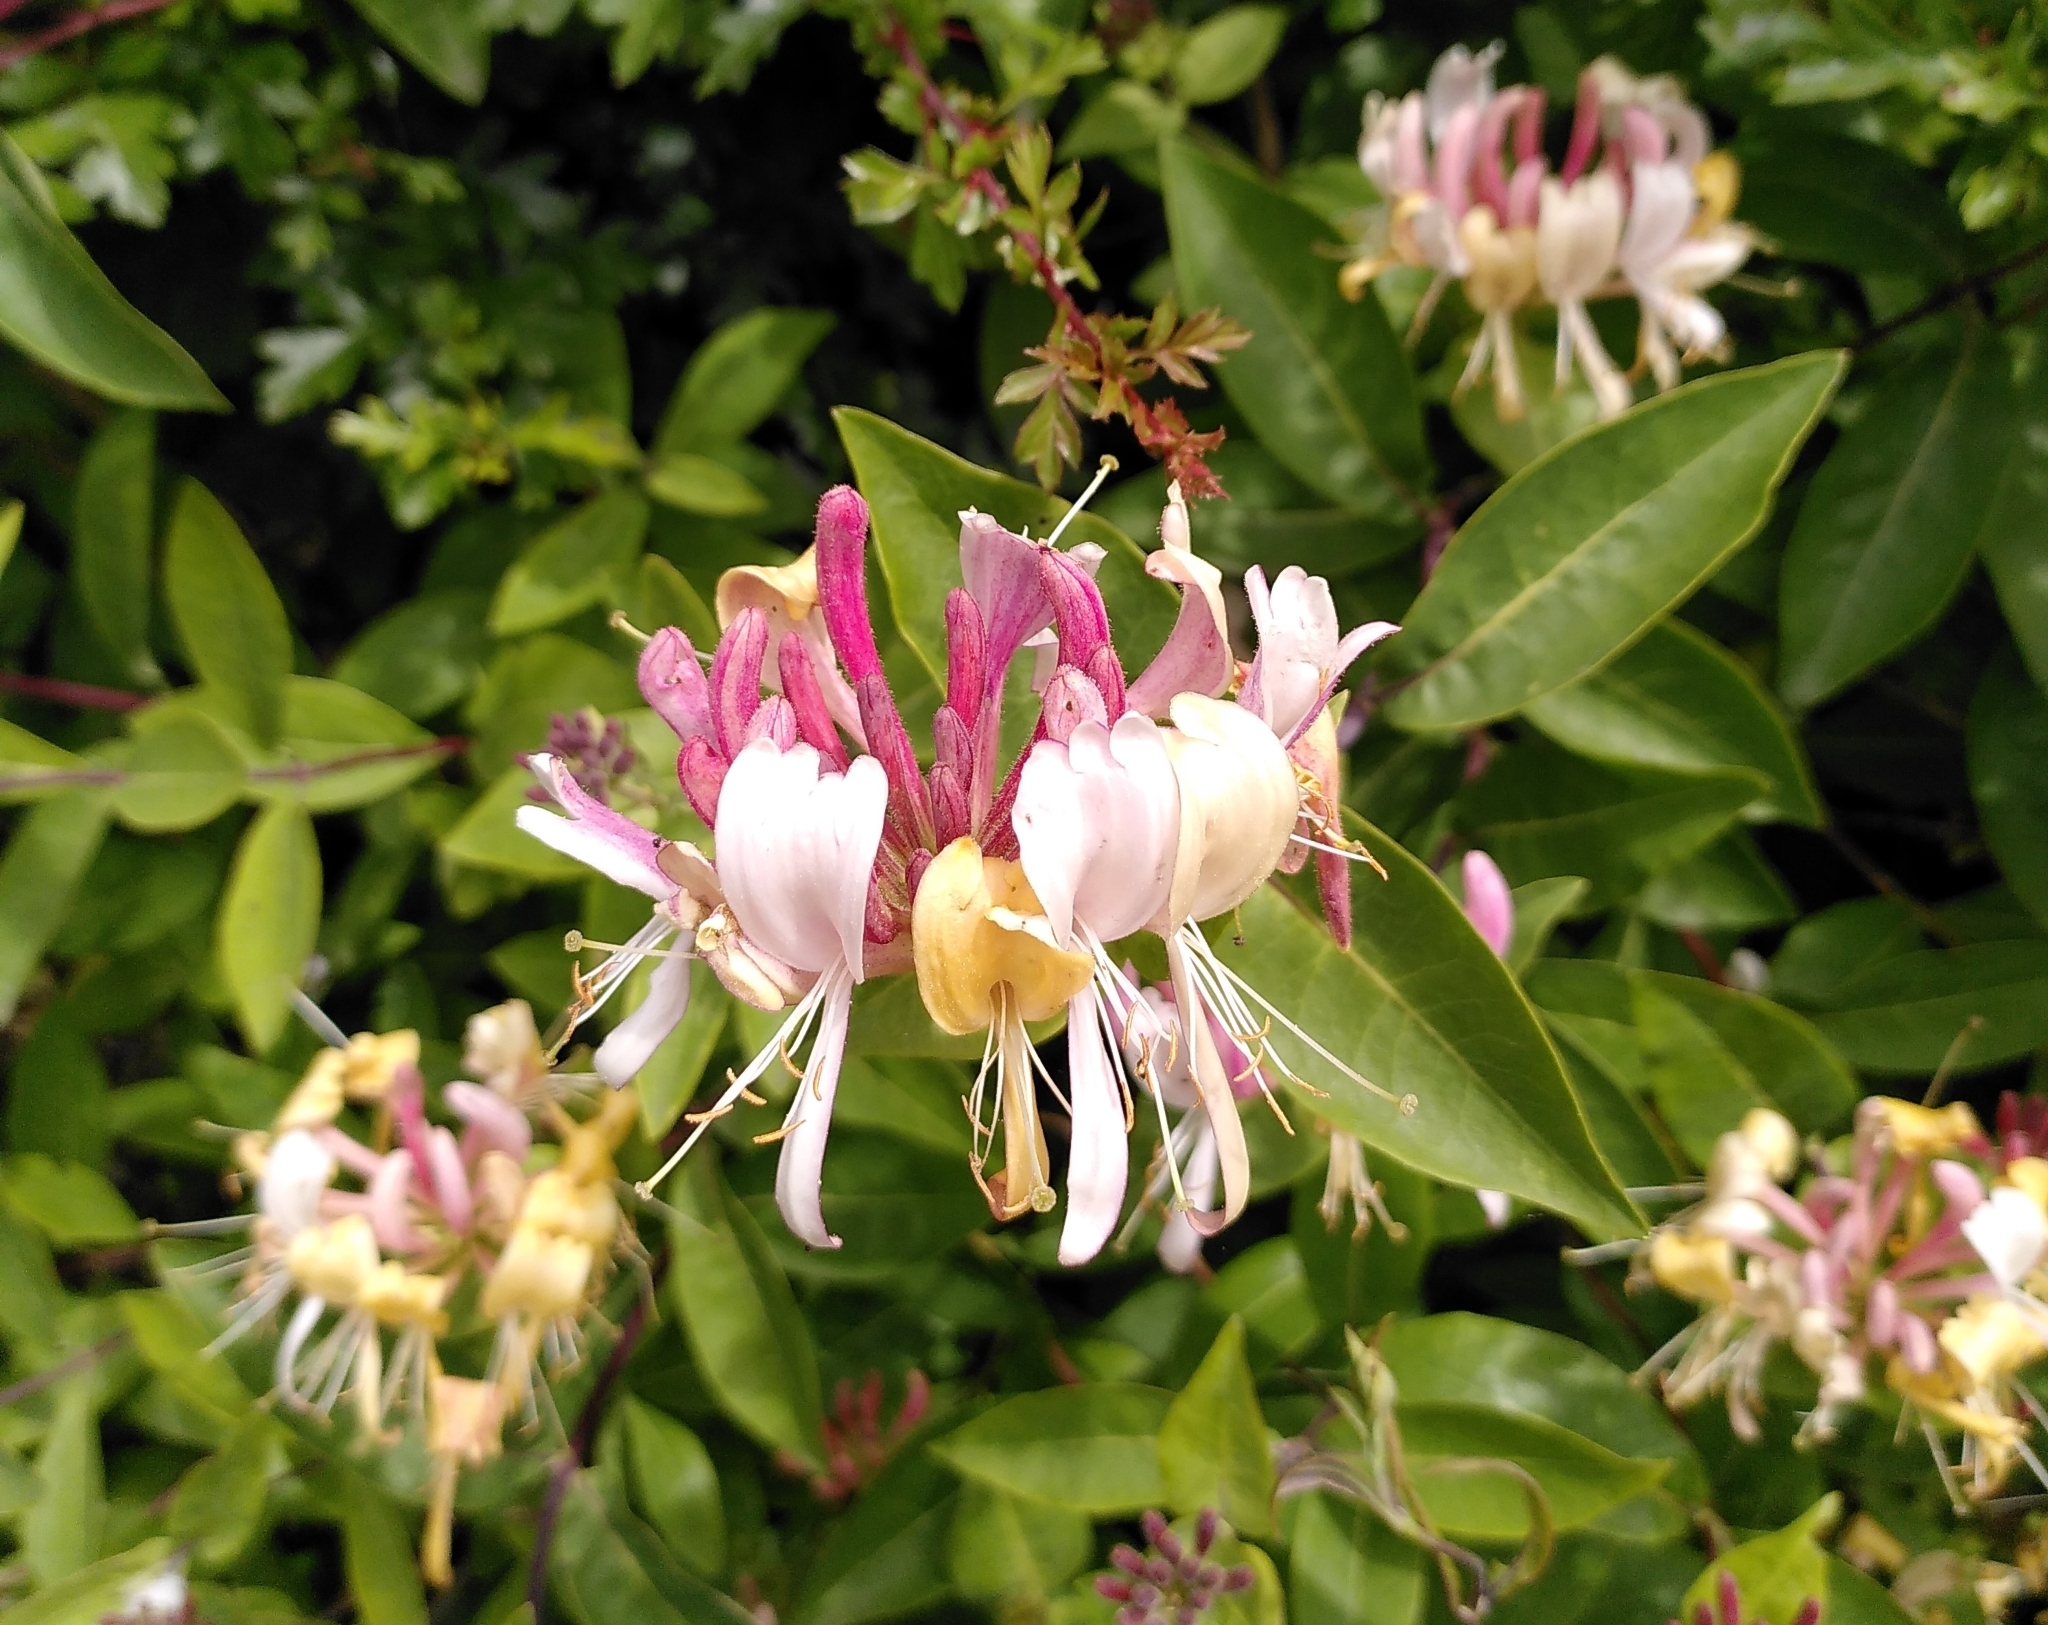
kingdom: Plantae
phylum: Tracheophyta
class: Magnoliopsida
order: Dipsacales
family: Caprifoliaceae
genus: Lonicera
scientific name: Lonicera periclymenum
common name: European honeysuckle
